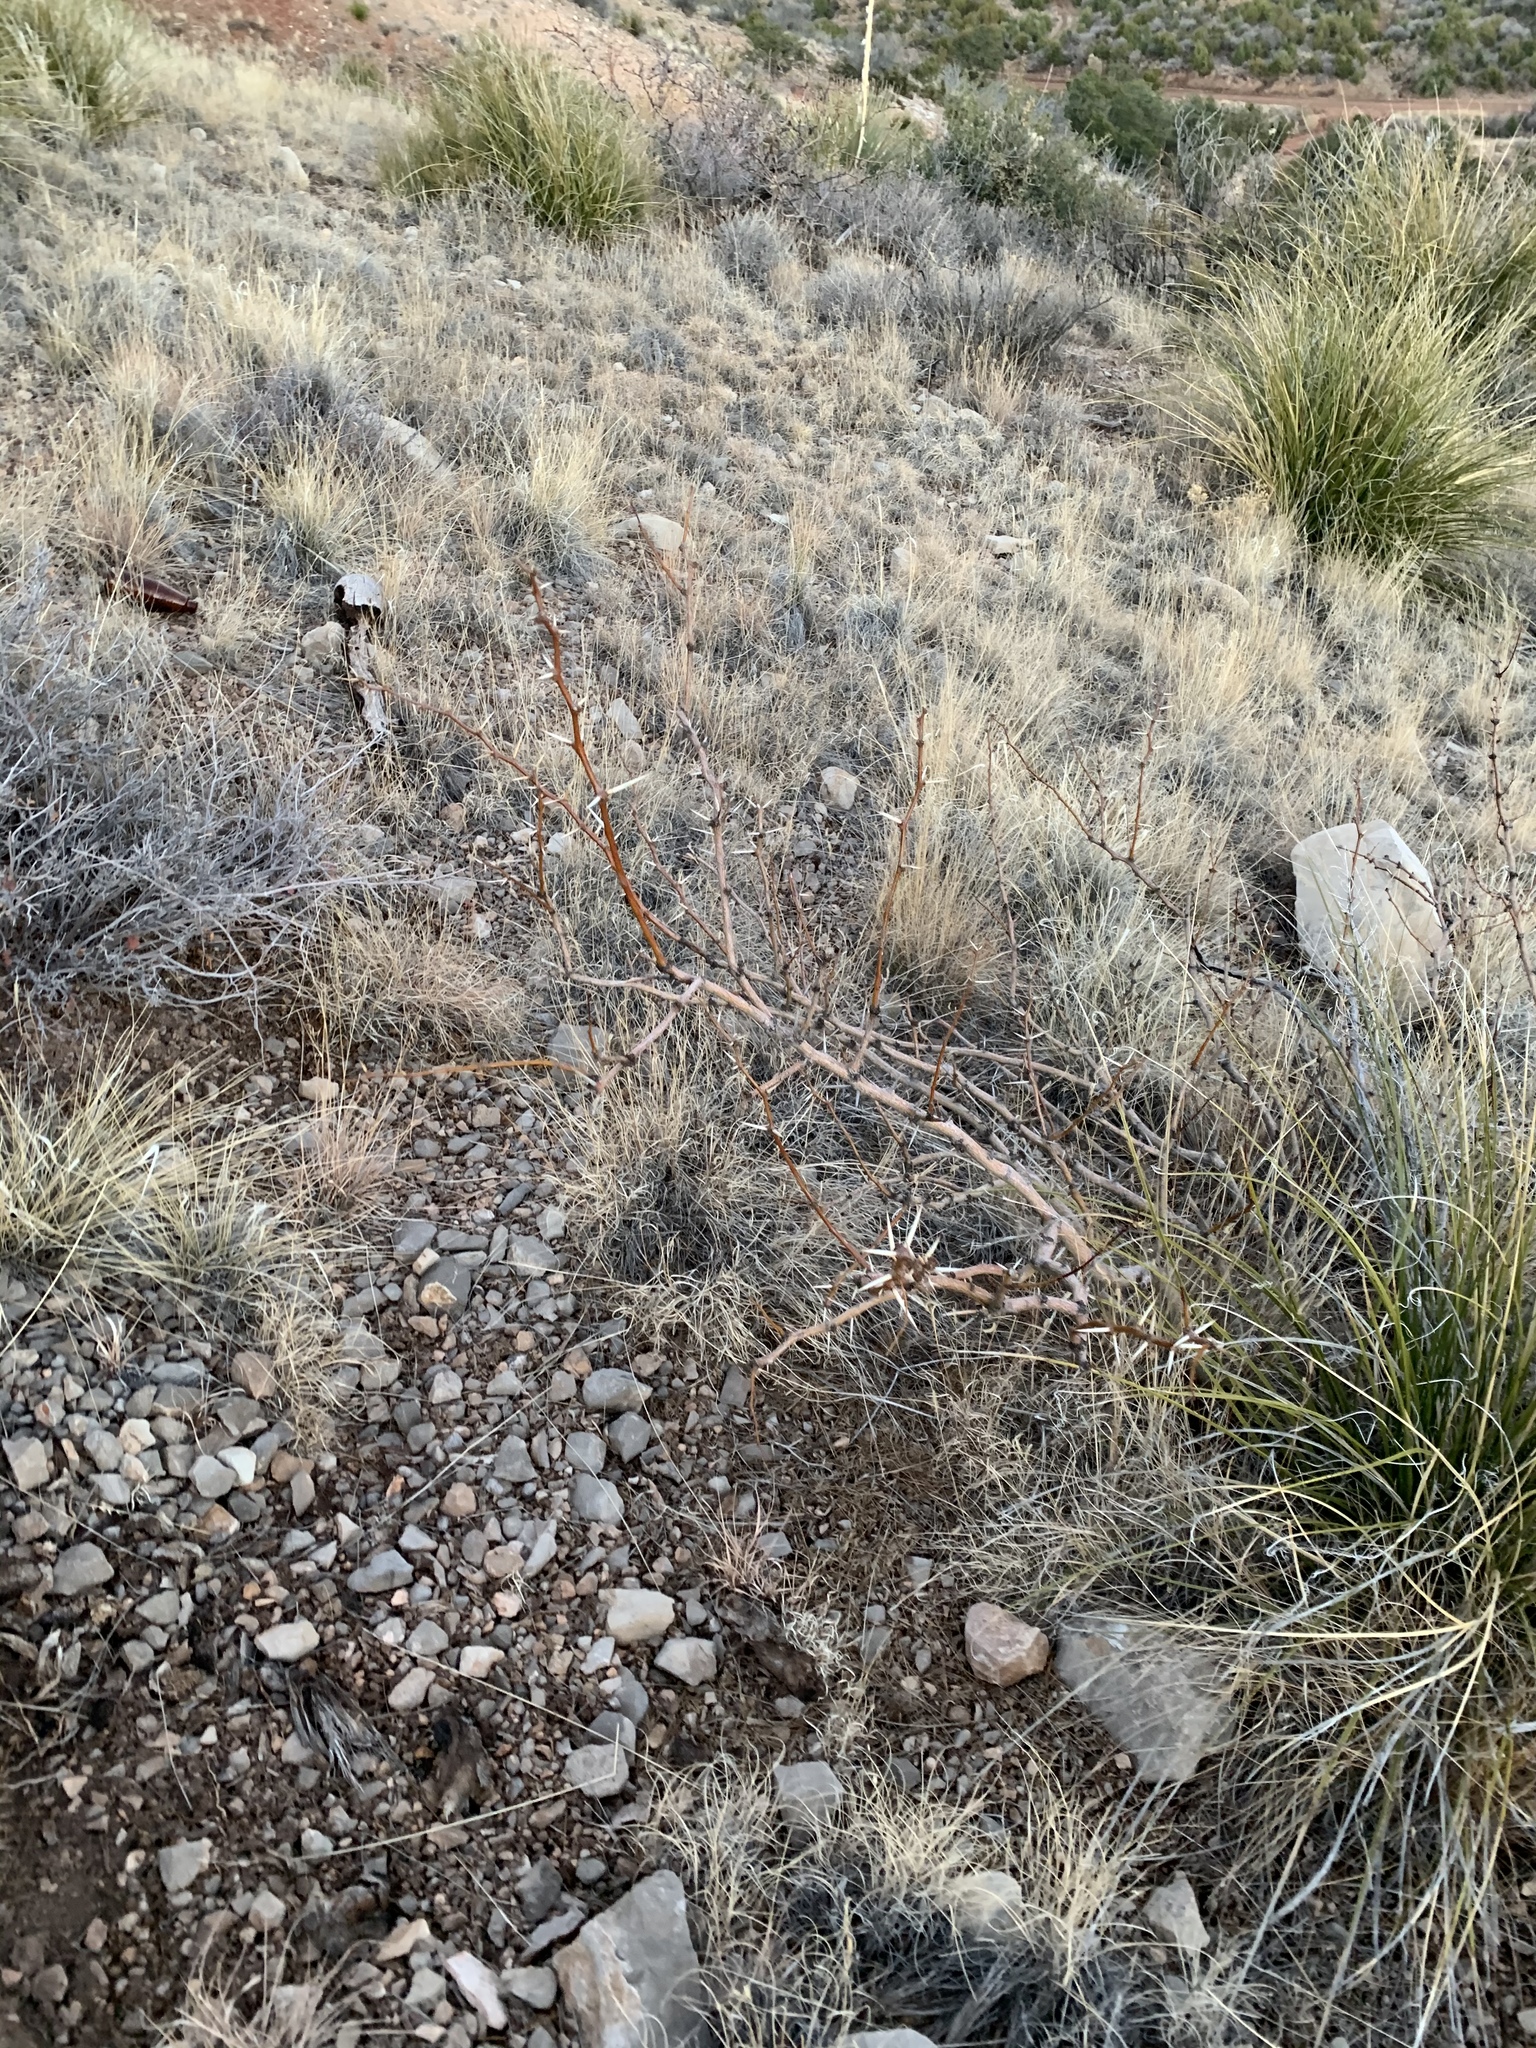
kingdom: Plantae
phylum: Tracheophyta
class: Magnoliopsida
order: Fabales
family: Fabaceae
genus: Prosopis
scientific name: Prosopis glandulosa
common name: Honey mesquite
